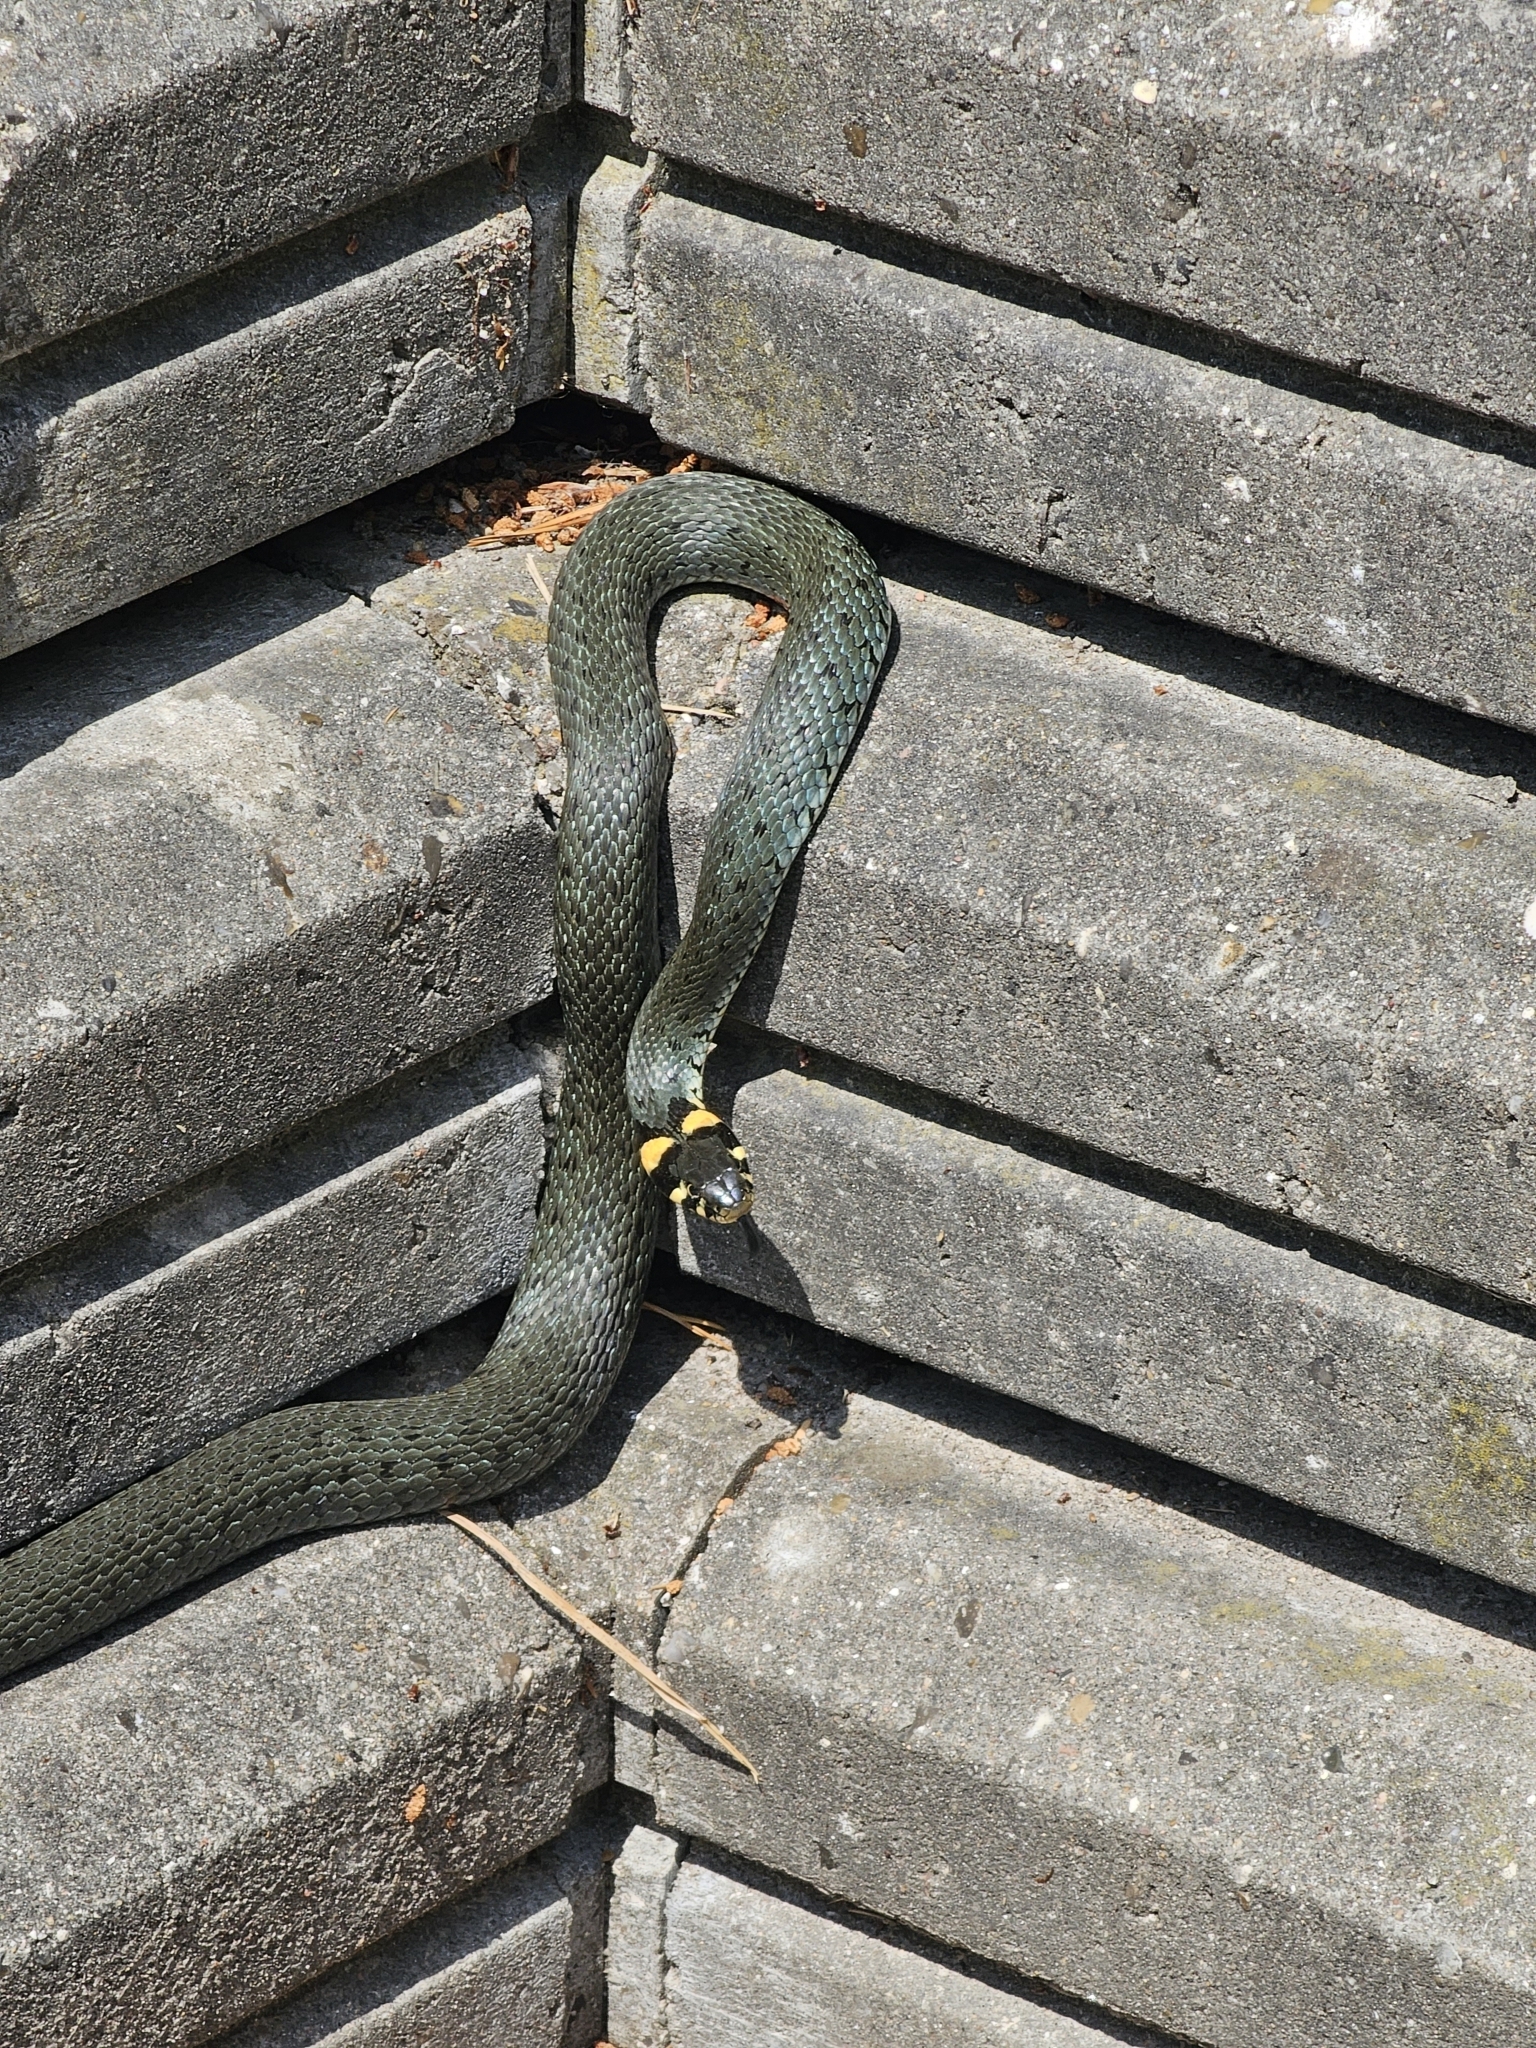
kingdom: Animalia
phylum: Chordata
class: Squamata
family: Colubridae
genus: Natrix
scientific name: Natrix natrix
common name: Grass snake
